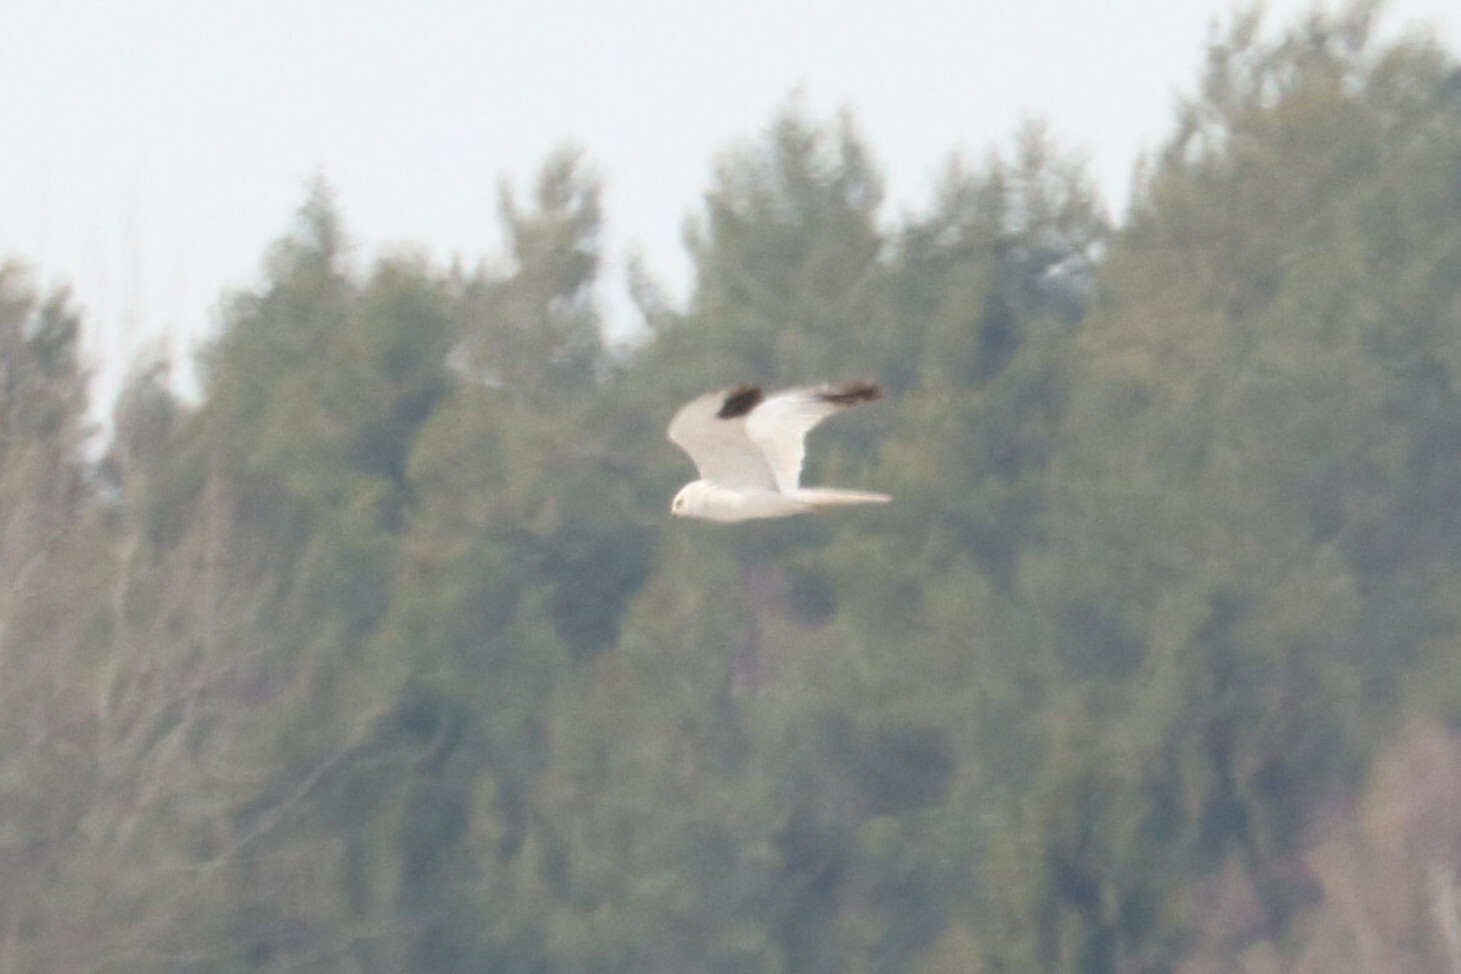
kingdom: Animalia
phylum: Chordata
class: Aves
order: Accipitriformes
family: Accipitridae
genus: Circus
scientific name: Circus macrourus
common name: Pallid harrier
